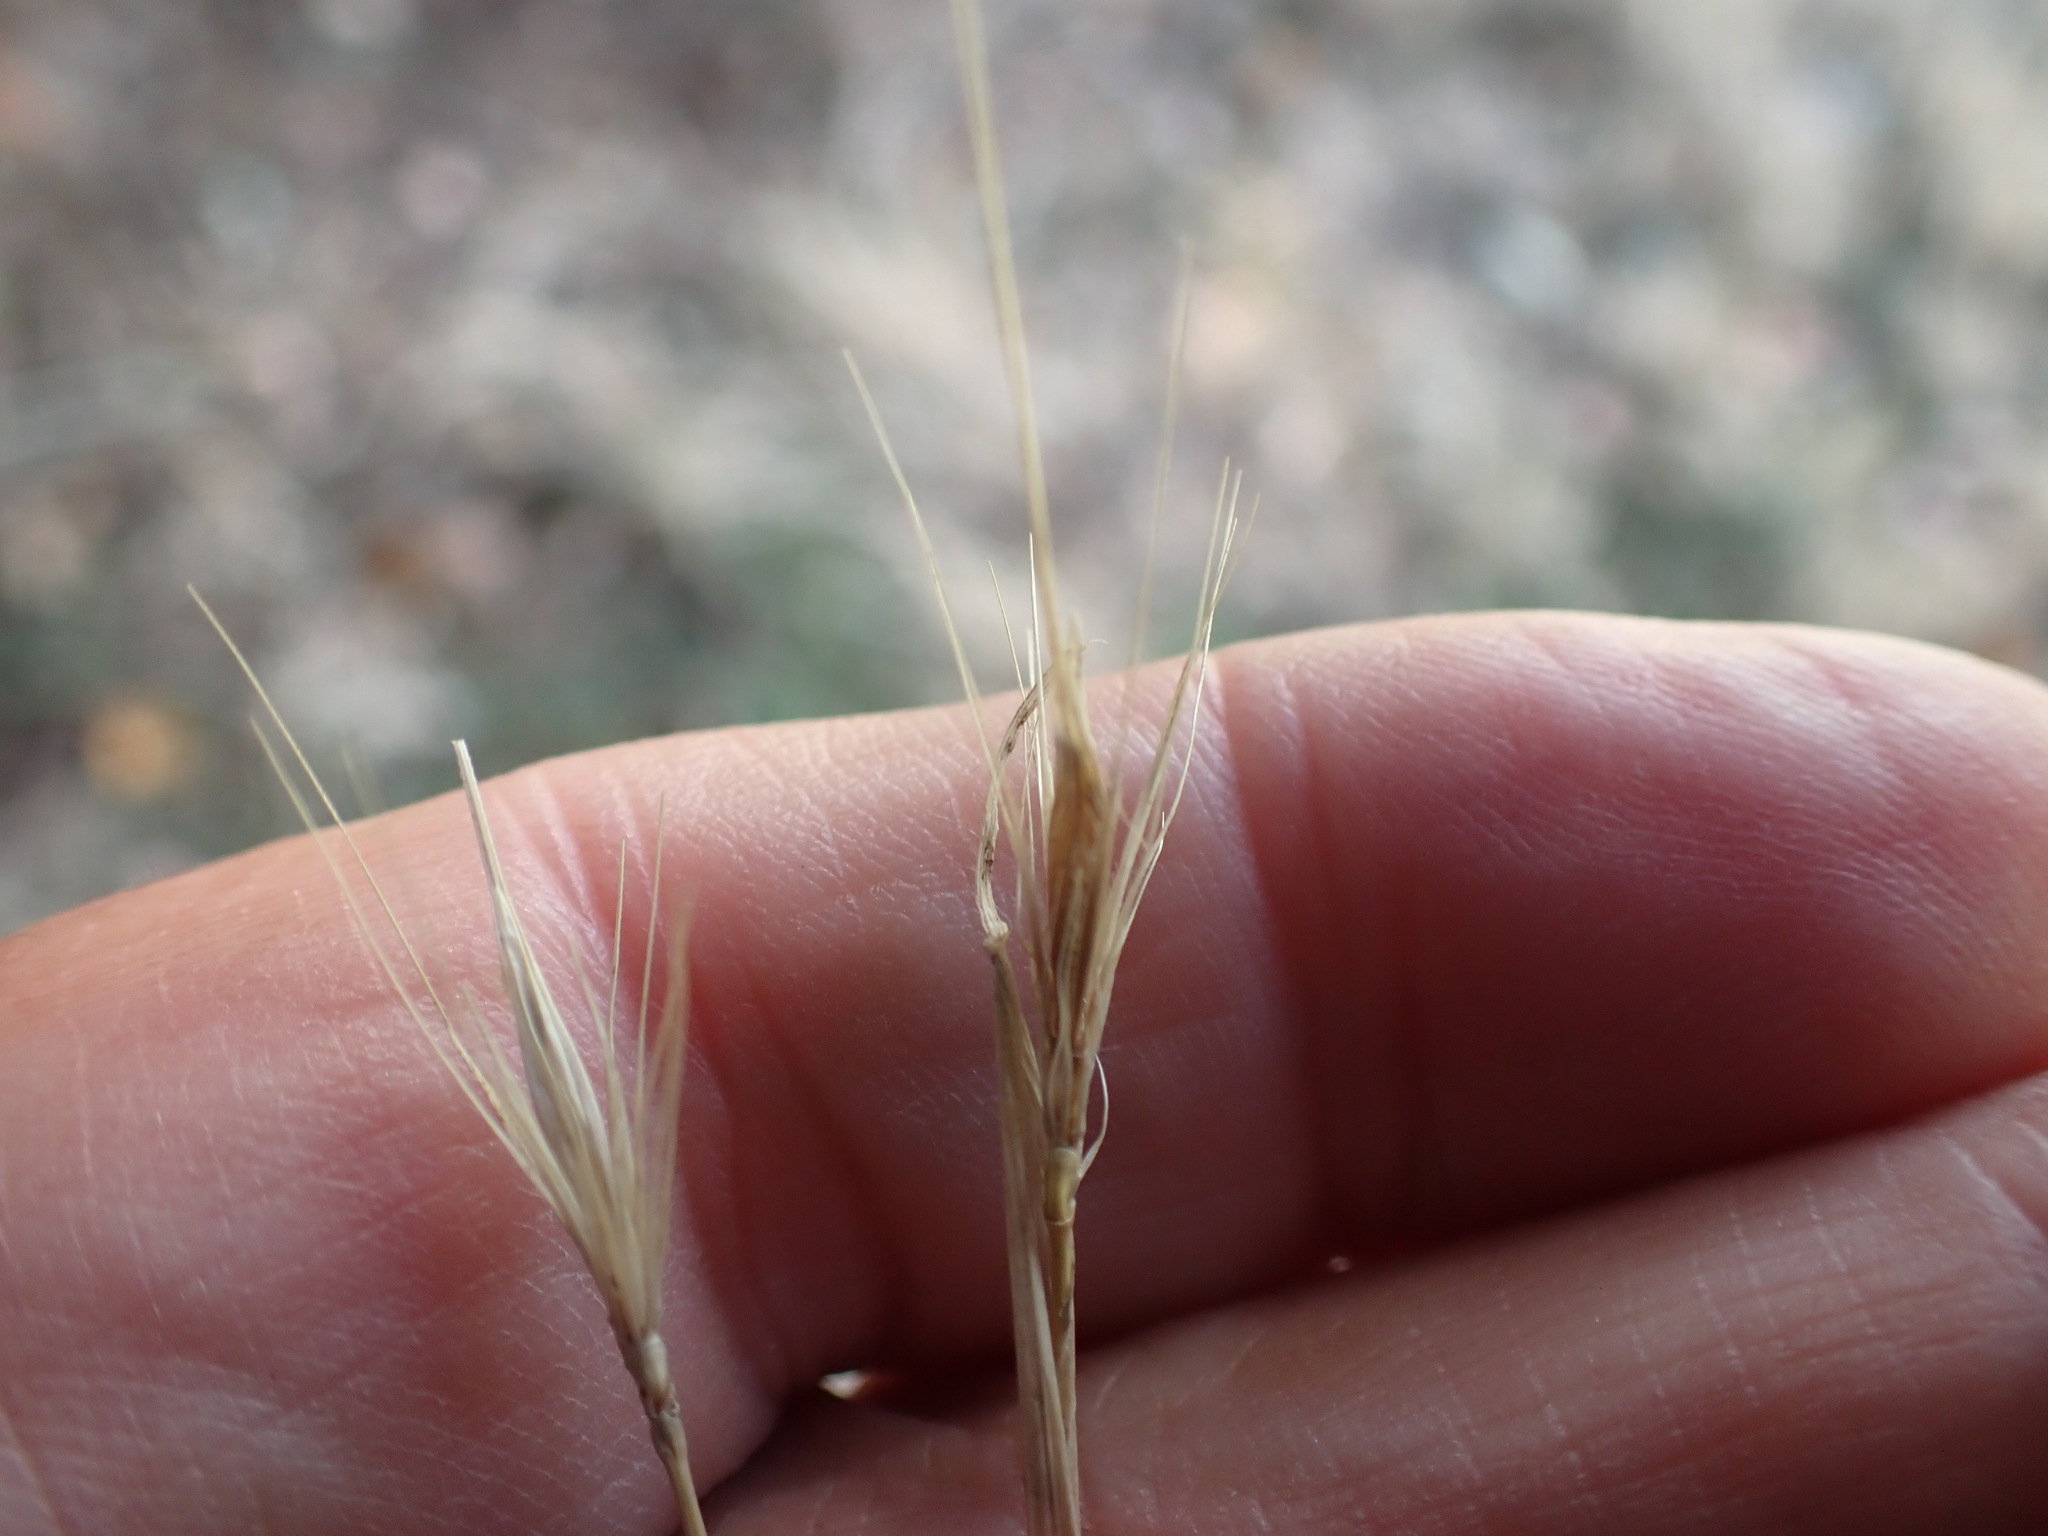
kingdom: Plantae
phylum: Tracheophyta
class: Liliopsida
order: Poales
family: Poaceae
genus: Hordeum
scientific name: Hordeum murinum
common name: Wall barley
